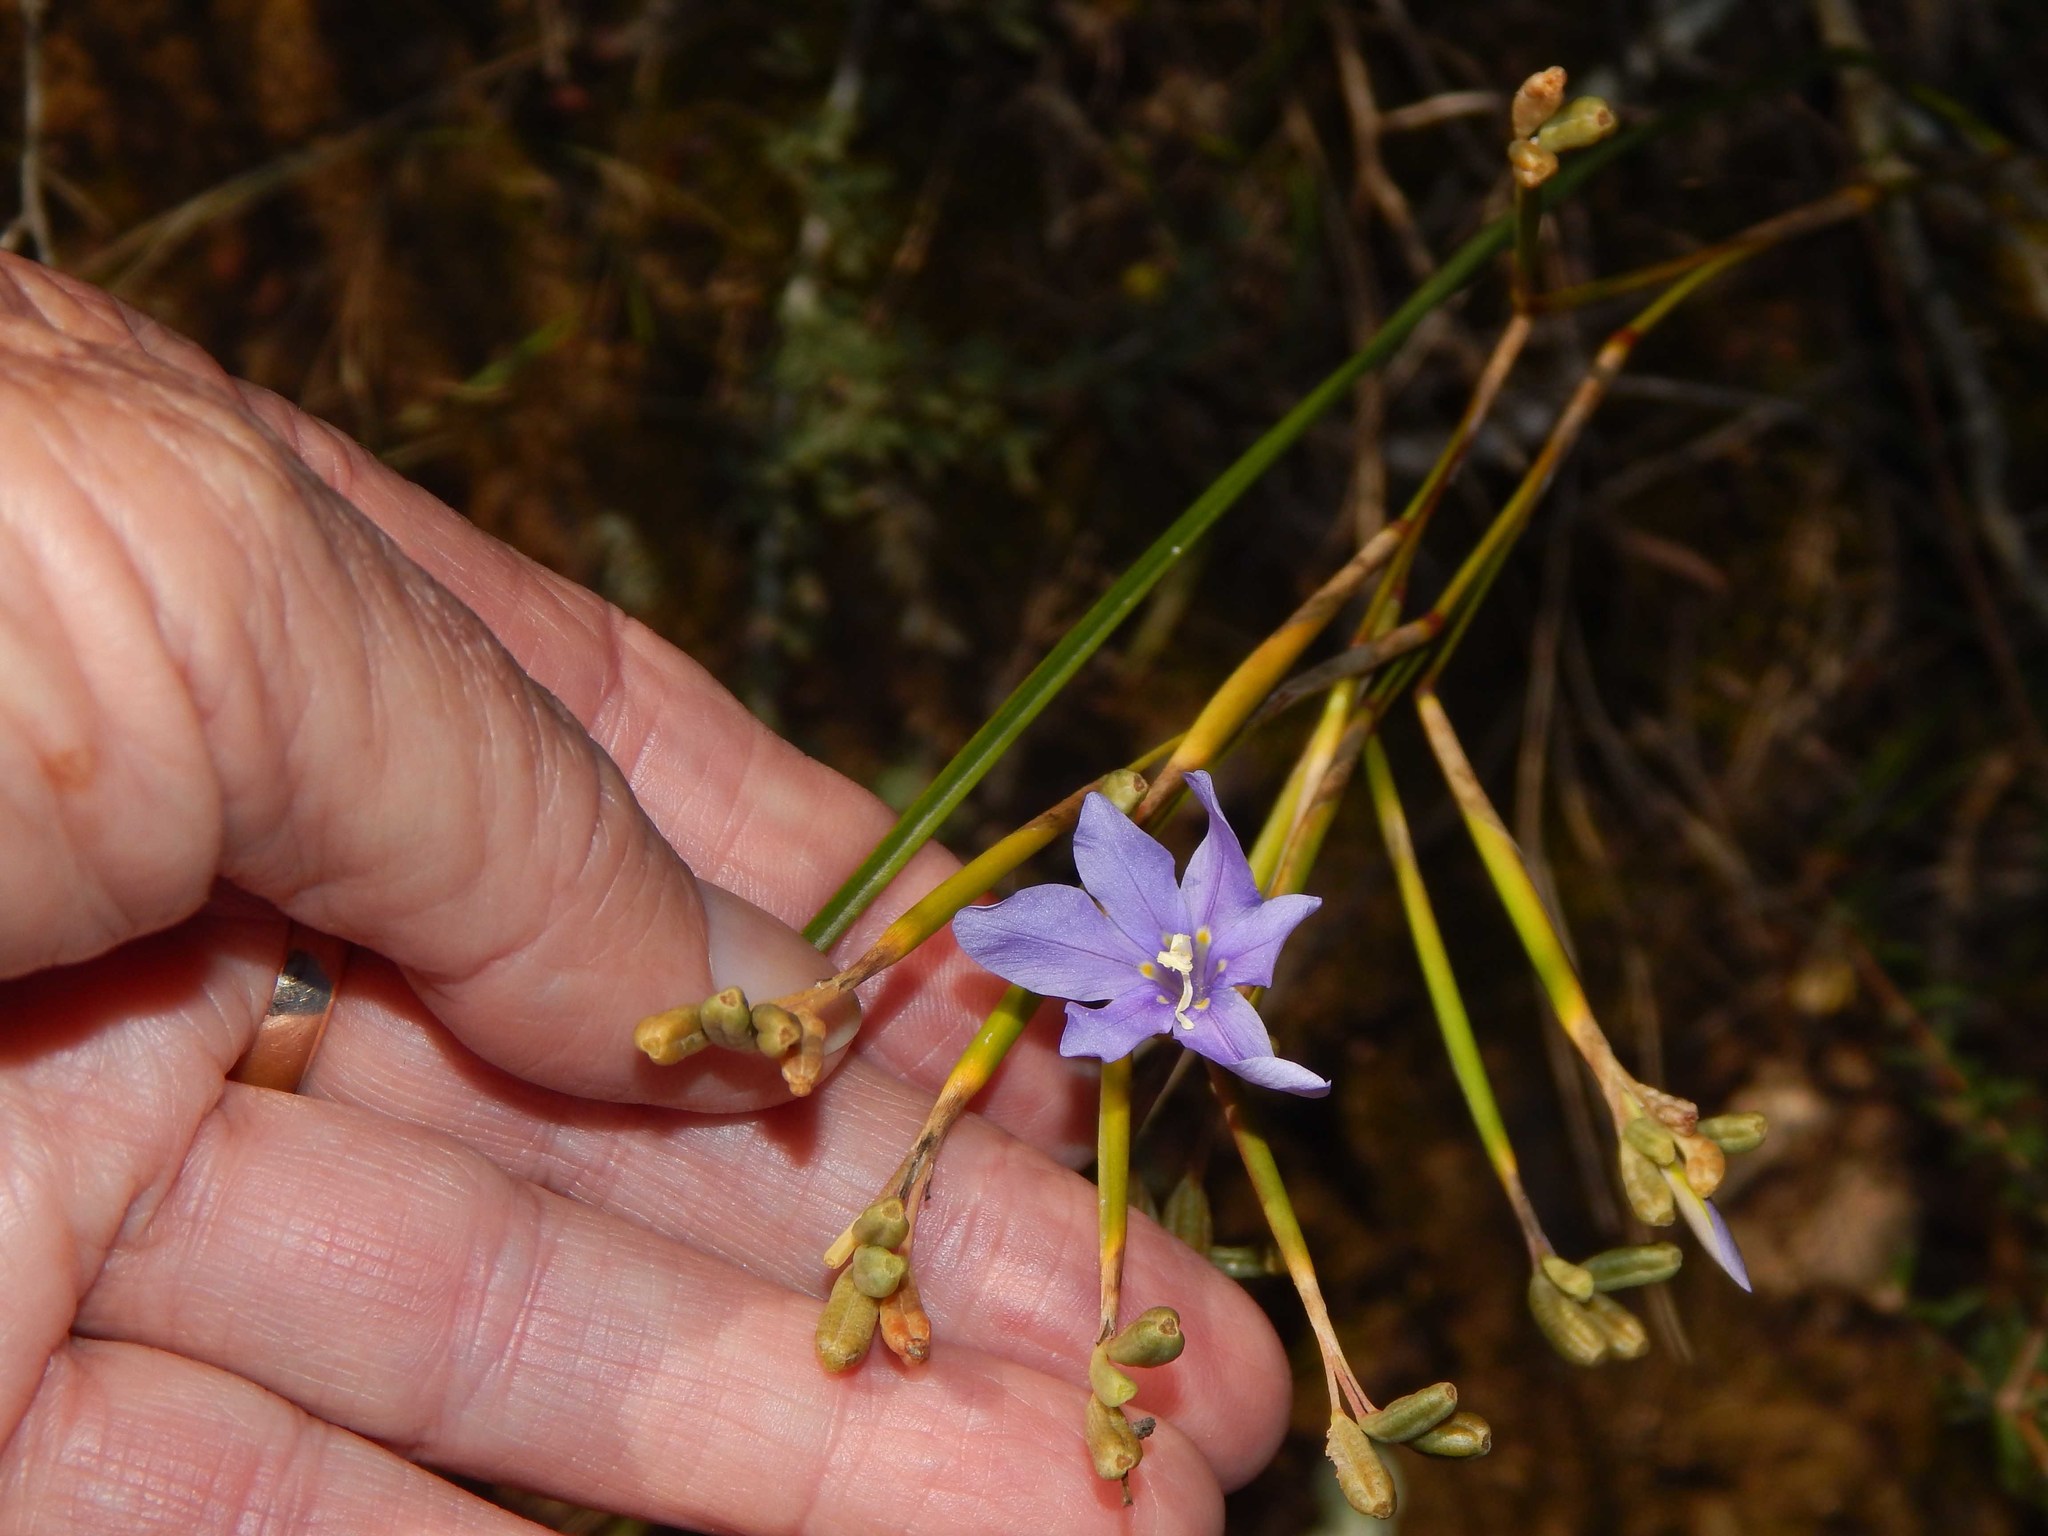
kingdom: Plantae
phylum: Tracheophyta
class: Liliopsida
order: Asparagales
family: Iridaceae
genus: Moraea
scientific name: Moraea polyanthos
